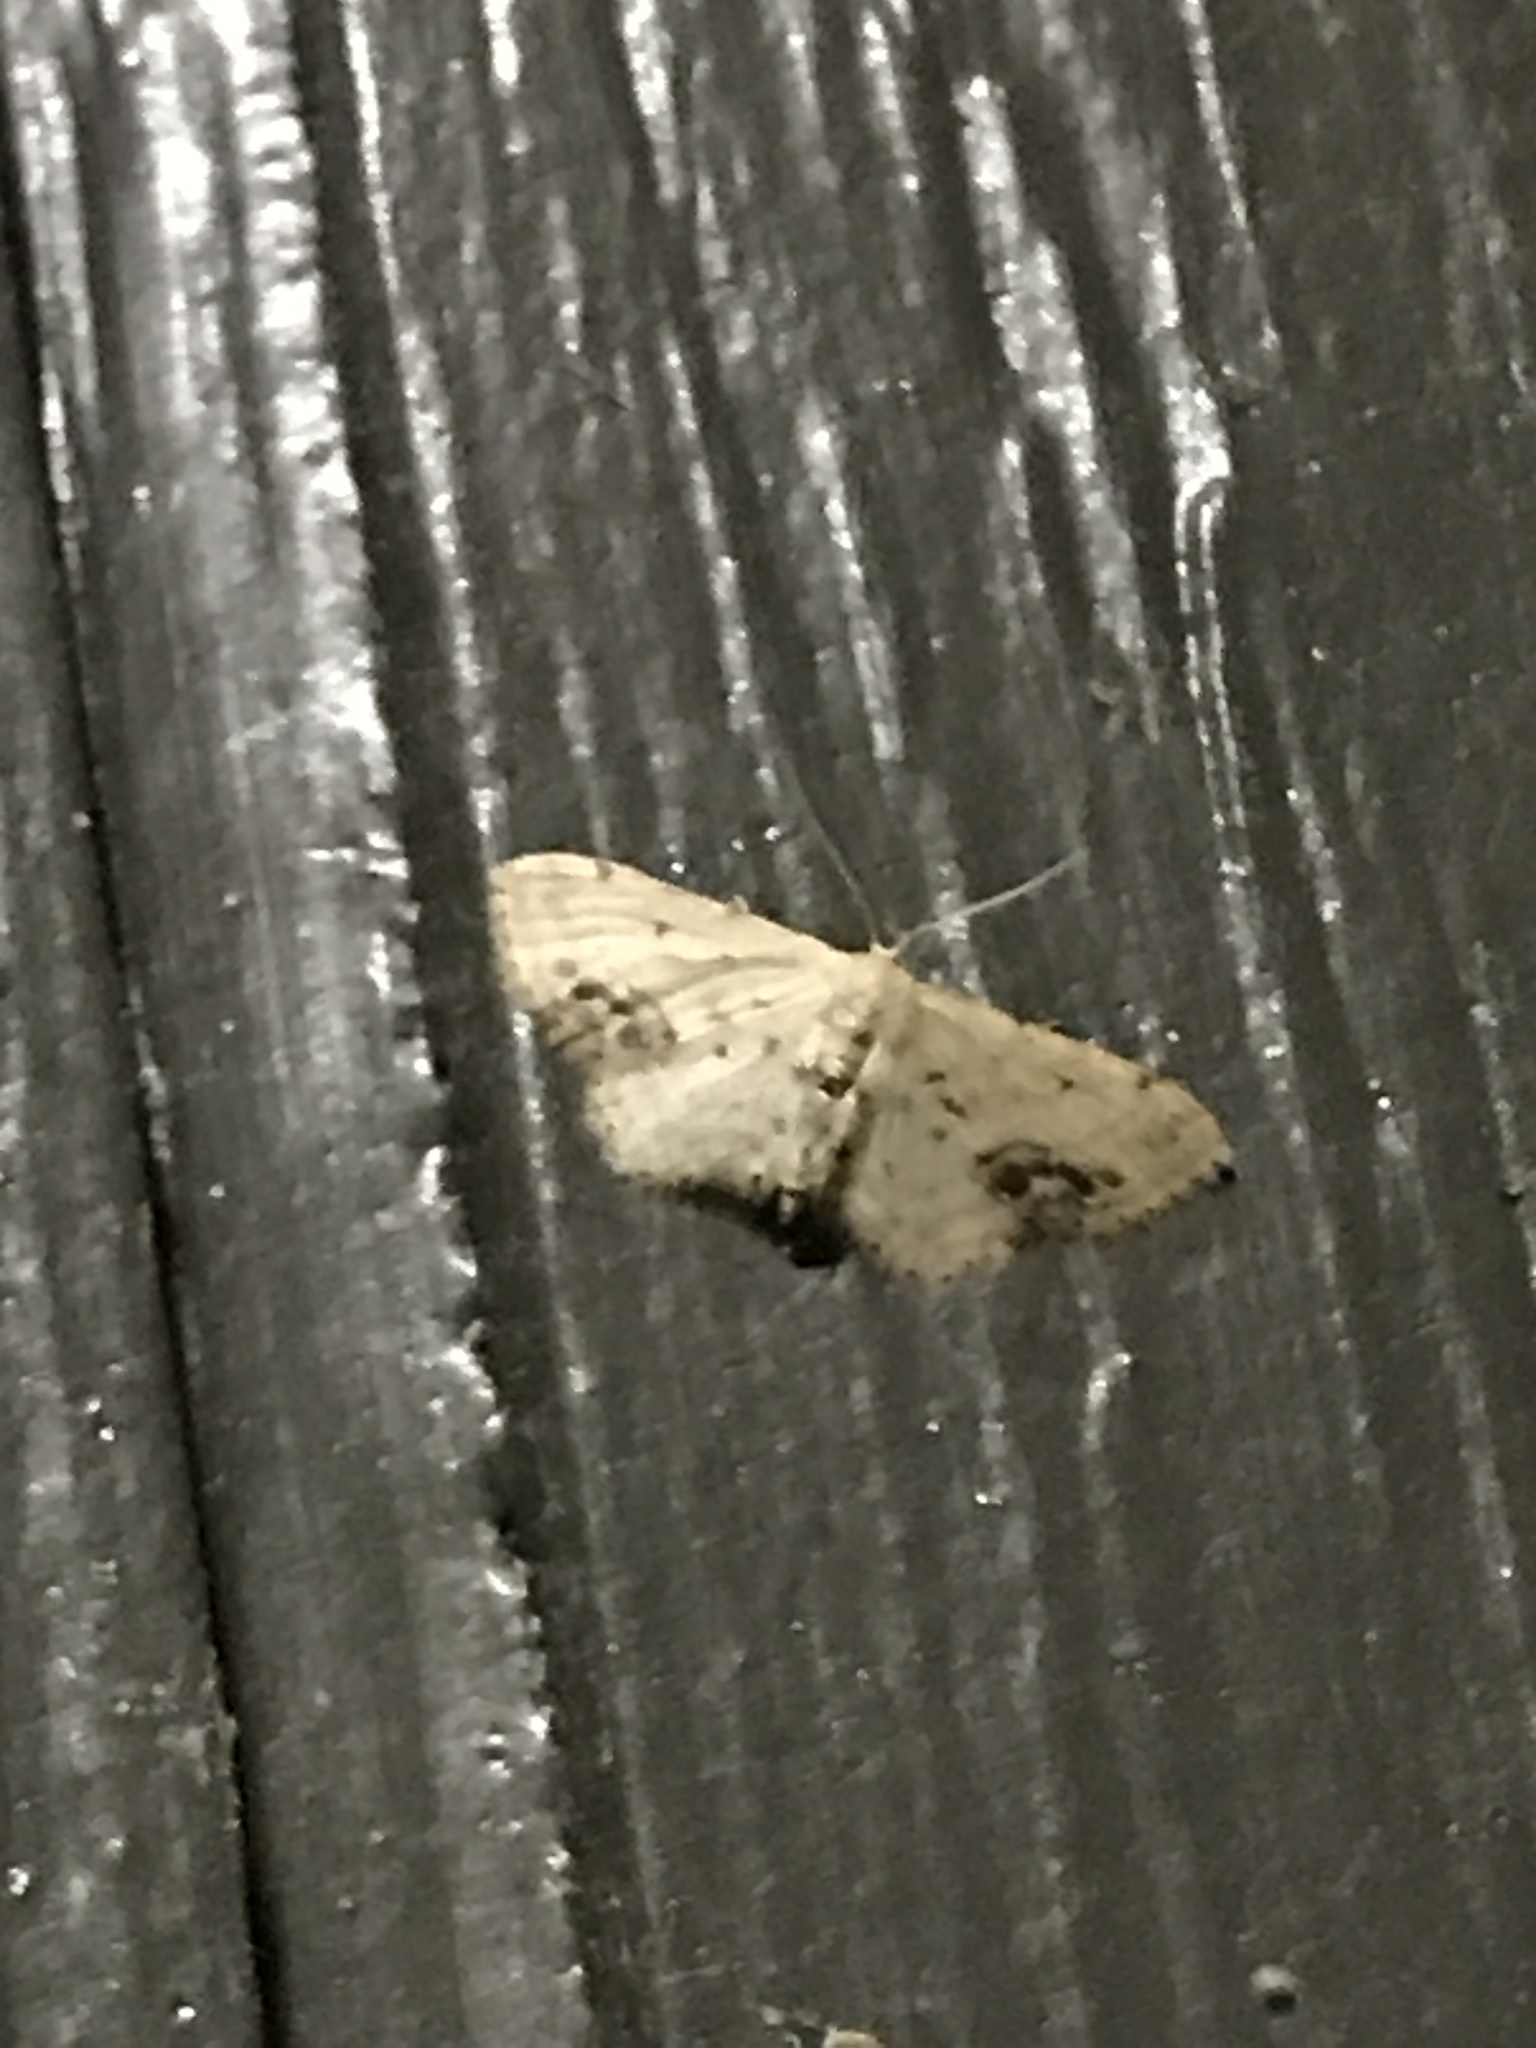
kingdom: Animalia
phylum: Arthropoda
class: Insecta
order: Lepidoptera
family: Geometridae
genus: Idaea
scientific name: Idaea dimidiata
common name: Single-dotted wave
